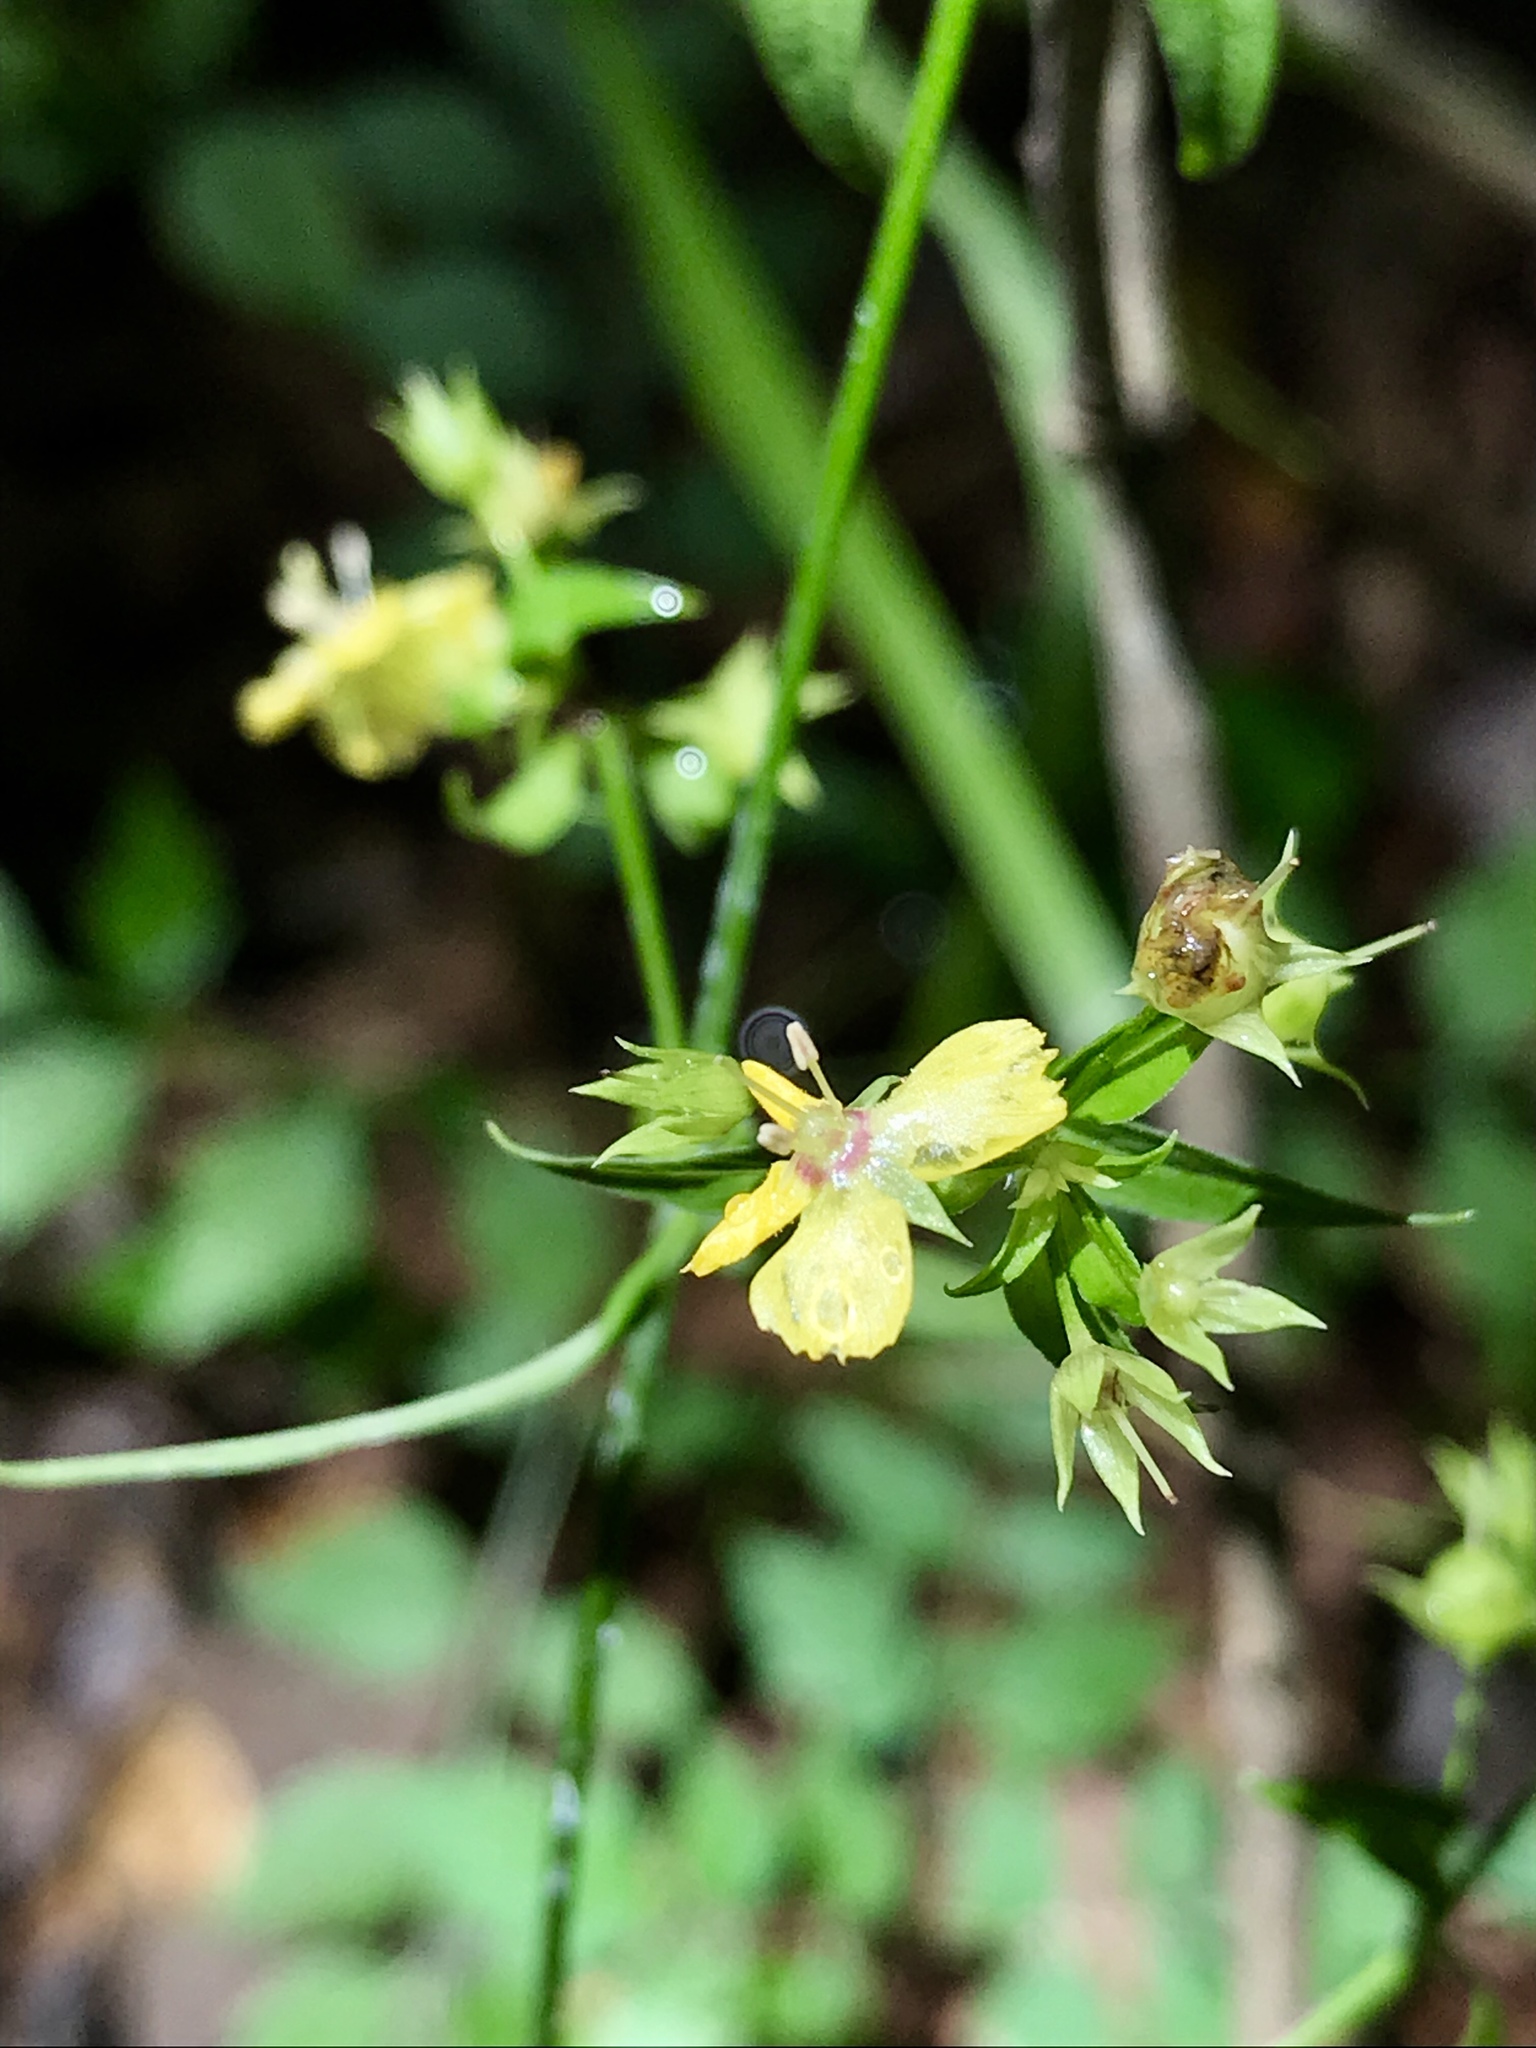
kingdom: Plantae
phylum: Tracheophyta
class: Magnoliopsida
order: Ericales
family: Primulaceae
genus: Lysimachia
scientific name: Lysimachia radicans
